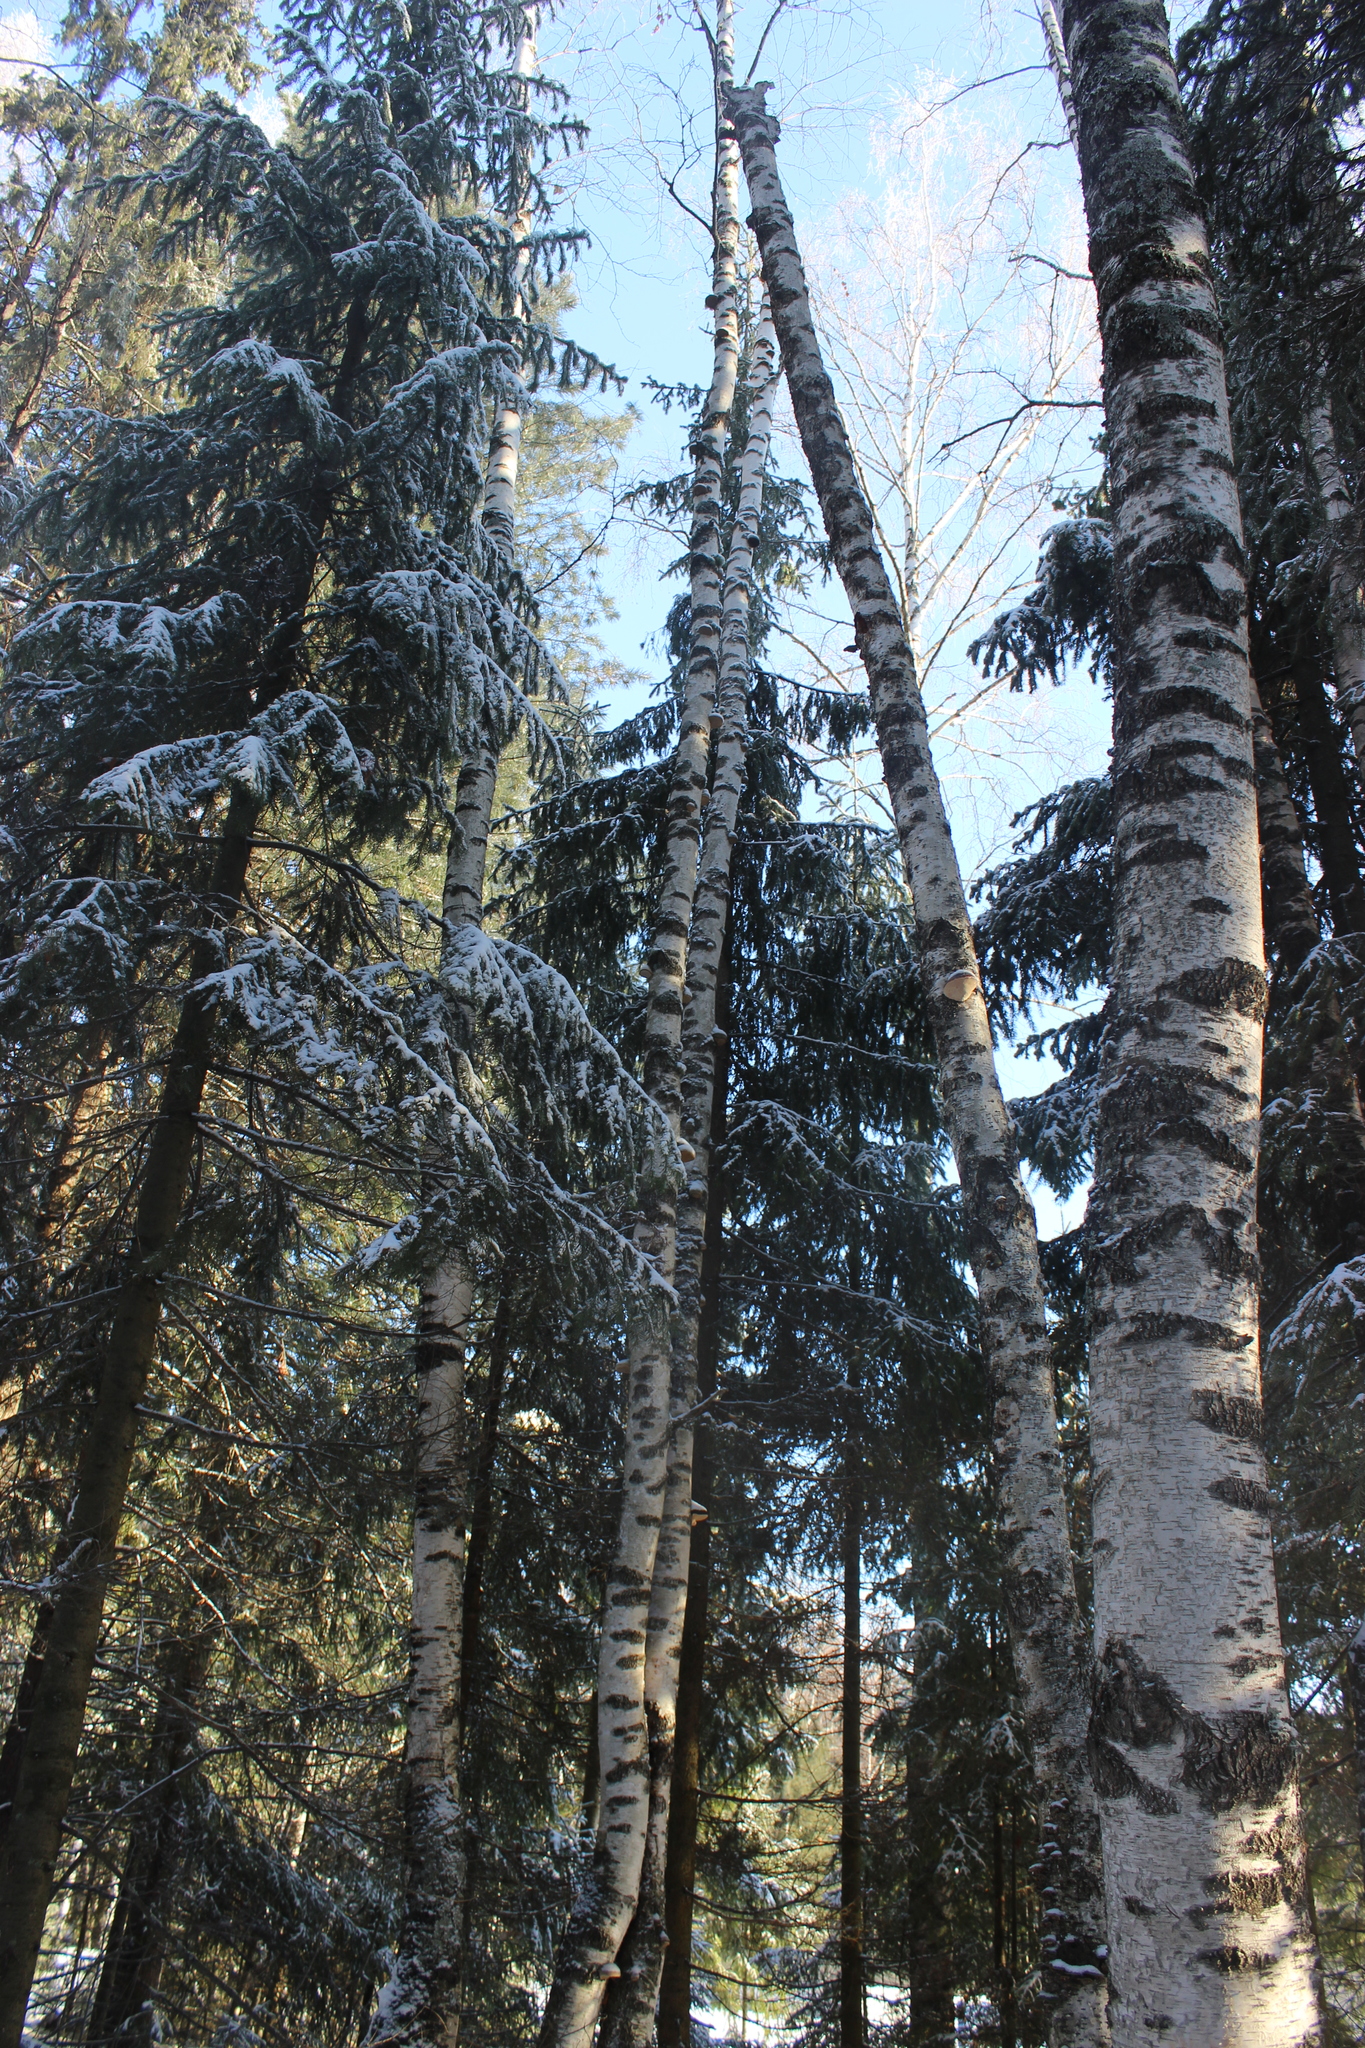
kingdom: Plantae
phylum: Tracheophyta
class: Magnoliopsida
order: Fagales
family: Betulaceae
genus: Betula
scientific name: Betula pubescens
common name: Downy birch
